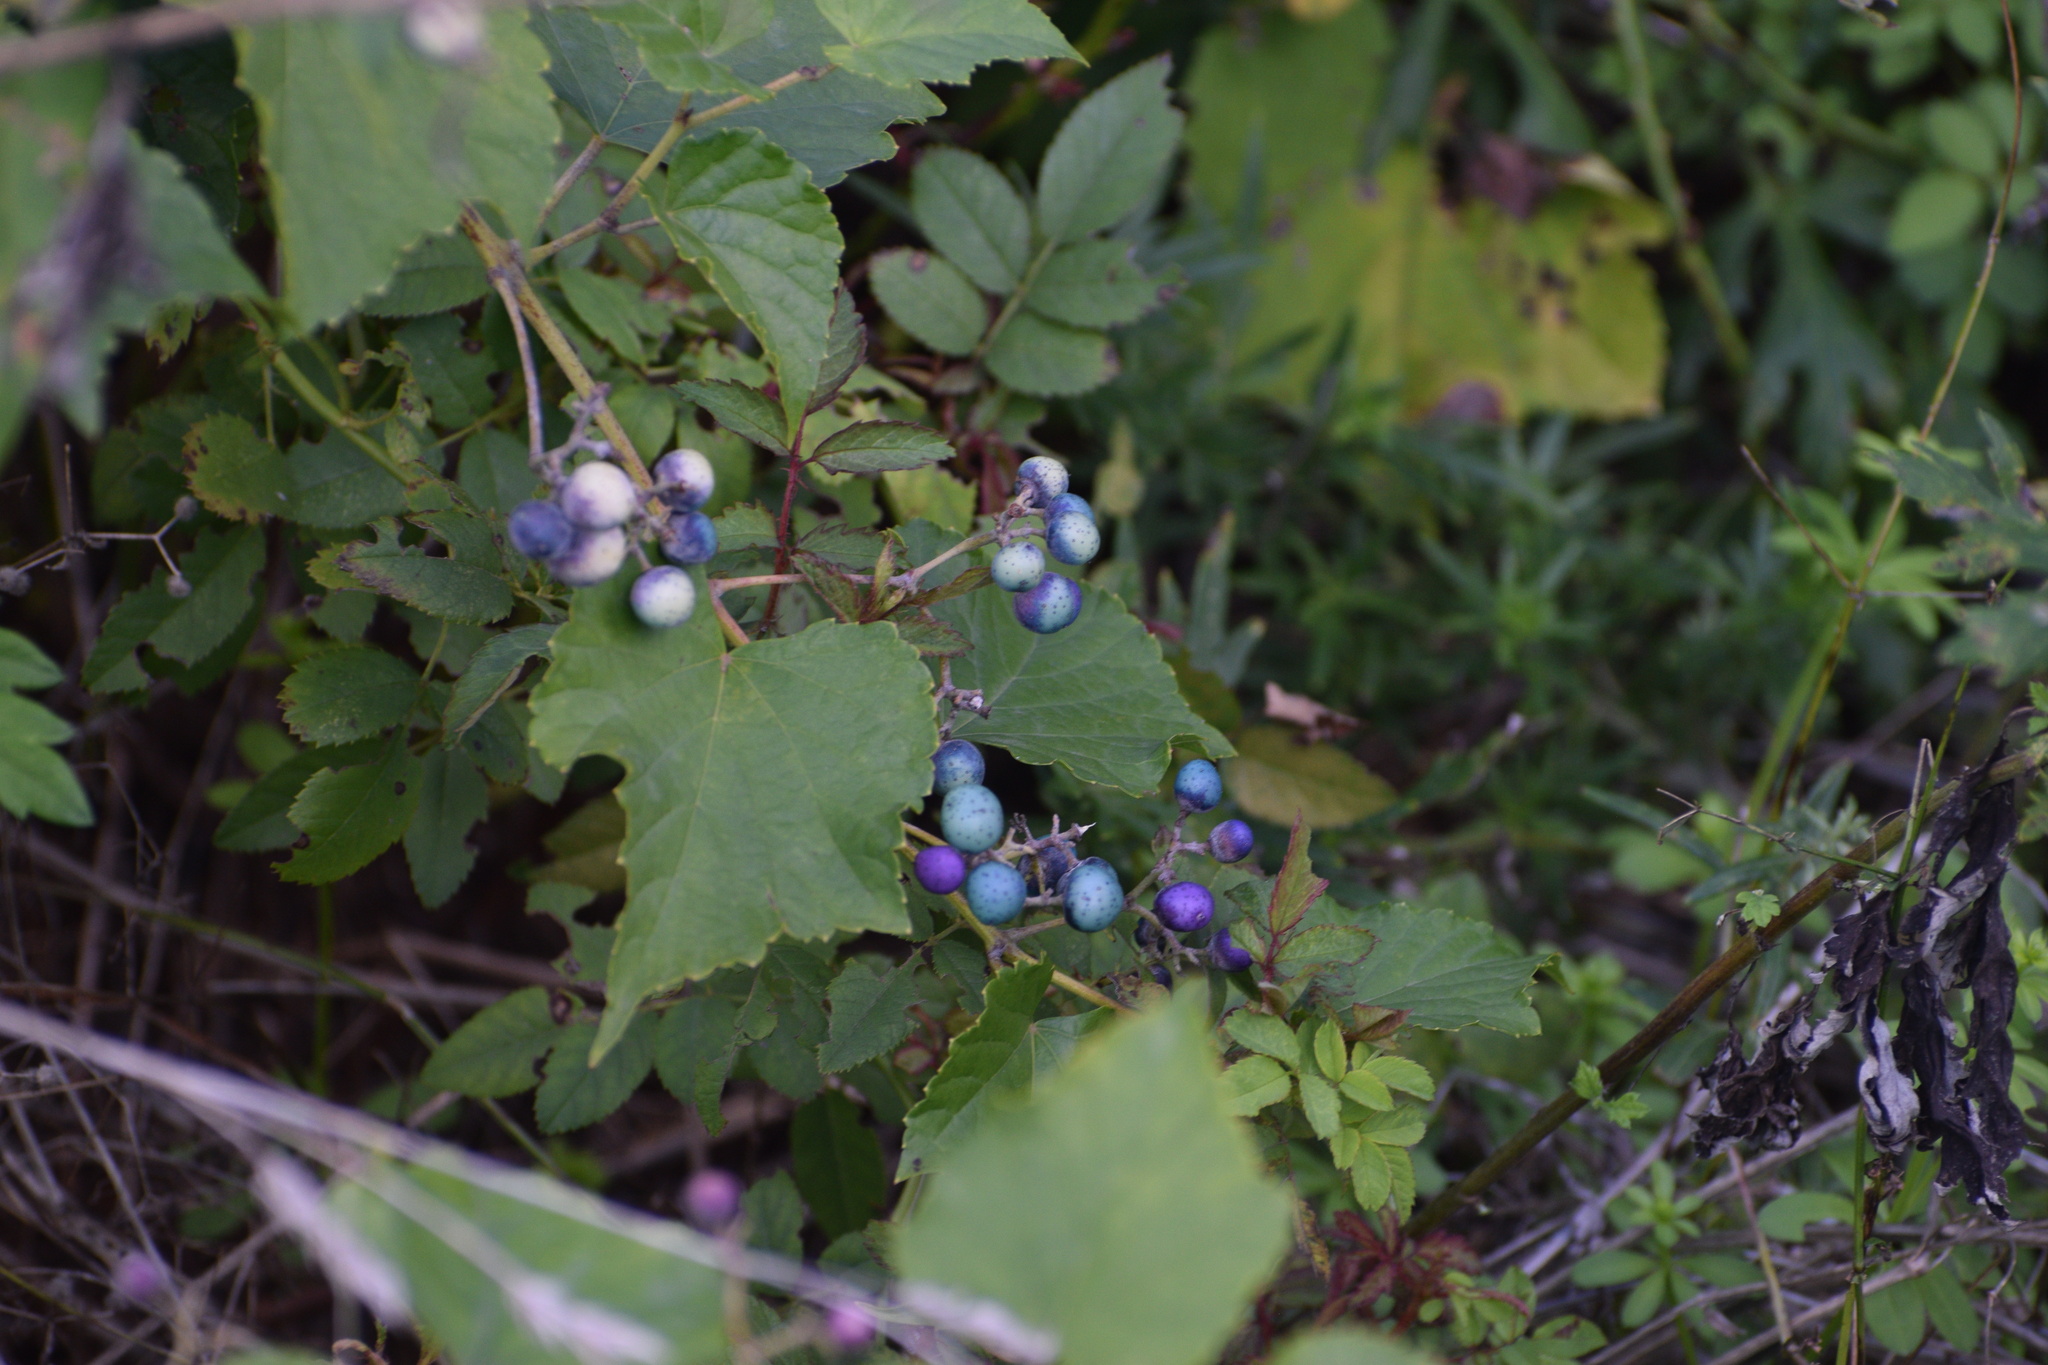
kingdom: Plantae
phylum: Tracheophyta
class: Magnoliopsida
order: Vitales
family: Vitaceae
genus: Ampelopsis
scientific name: Ampelopsis glandulosa
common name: Amur peppervine
